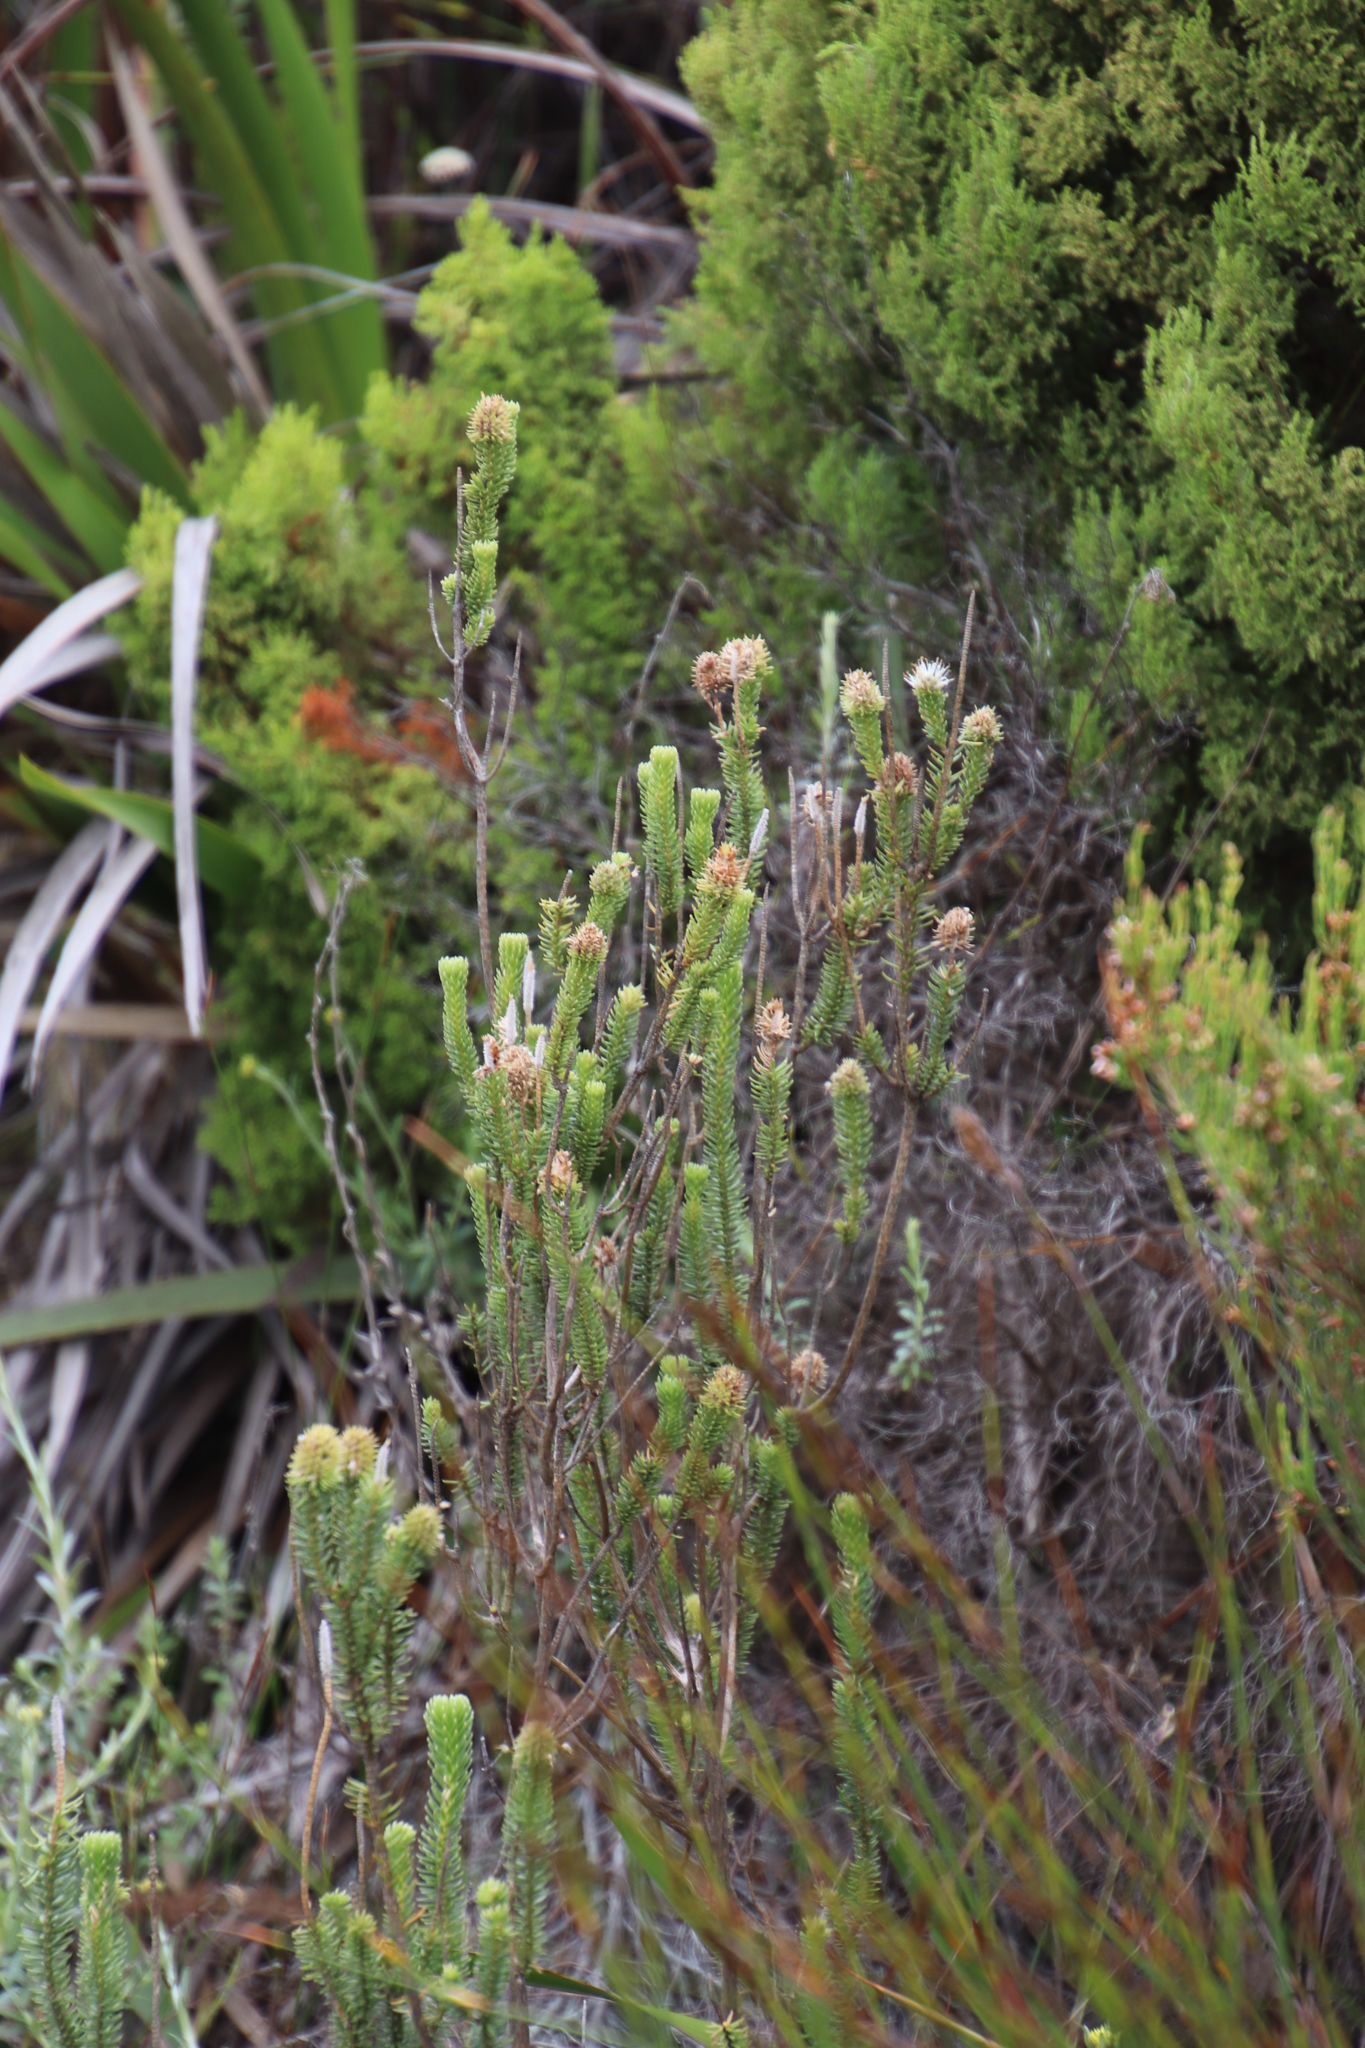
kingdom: Plantae
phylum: Tracheophyta
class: Magnoliopsida
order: Lamiales
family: Stilbaceae
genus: Stilbe
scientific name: Stilbe vestita
